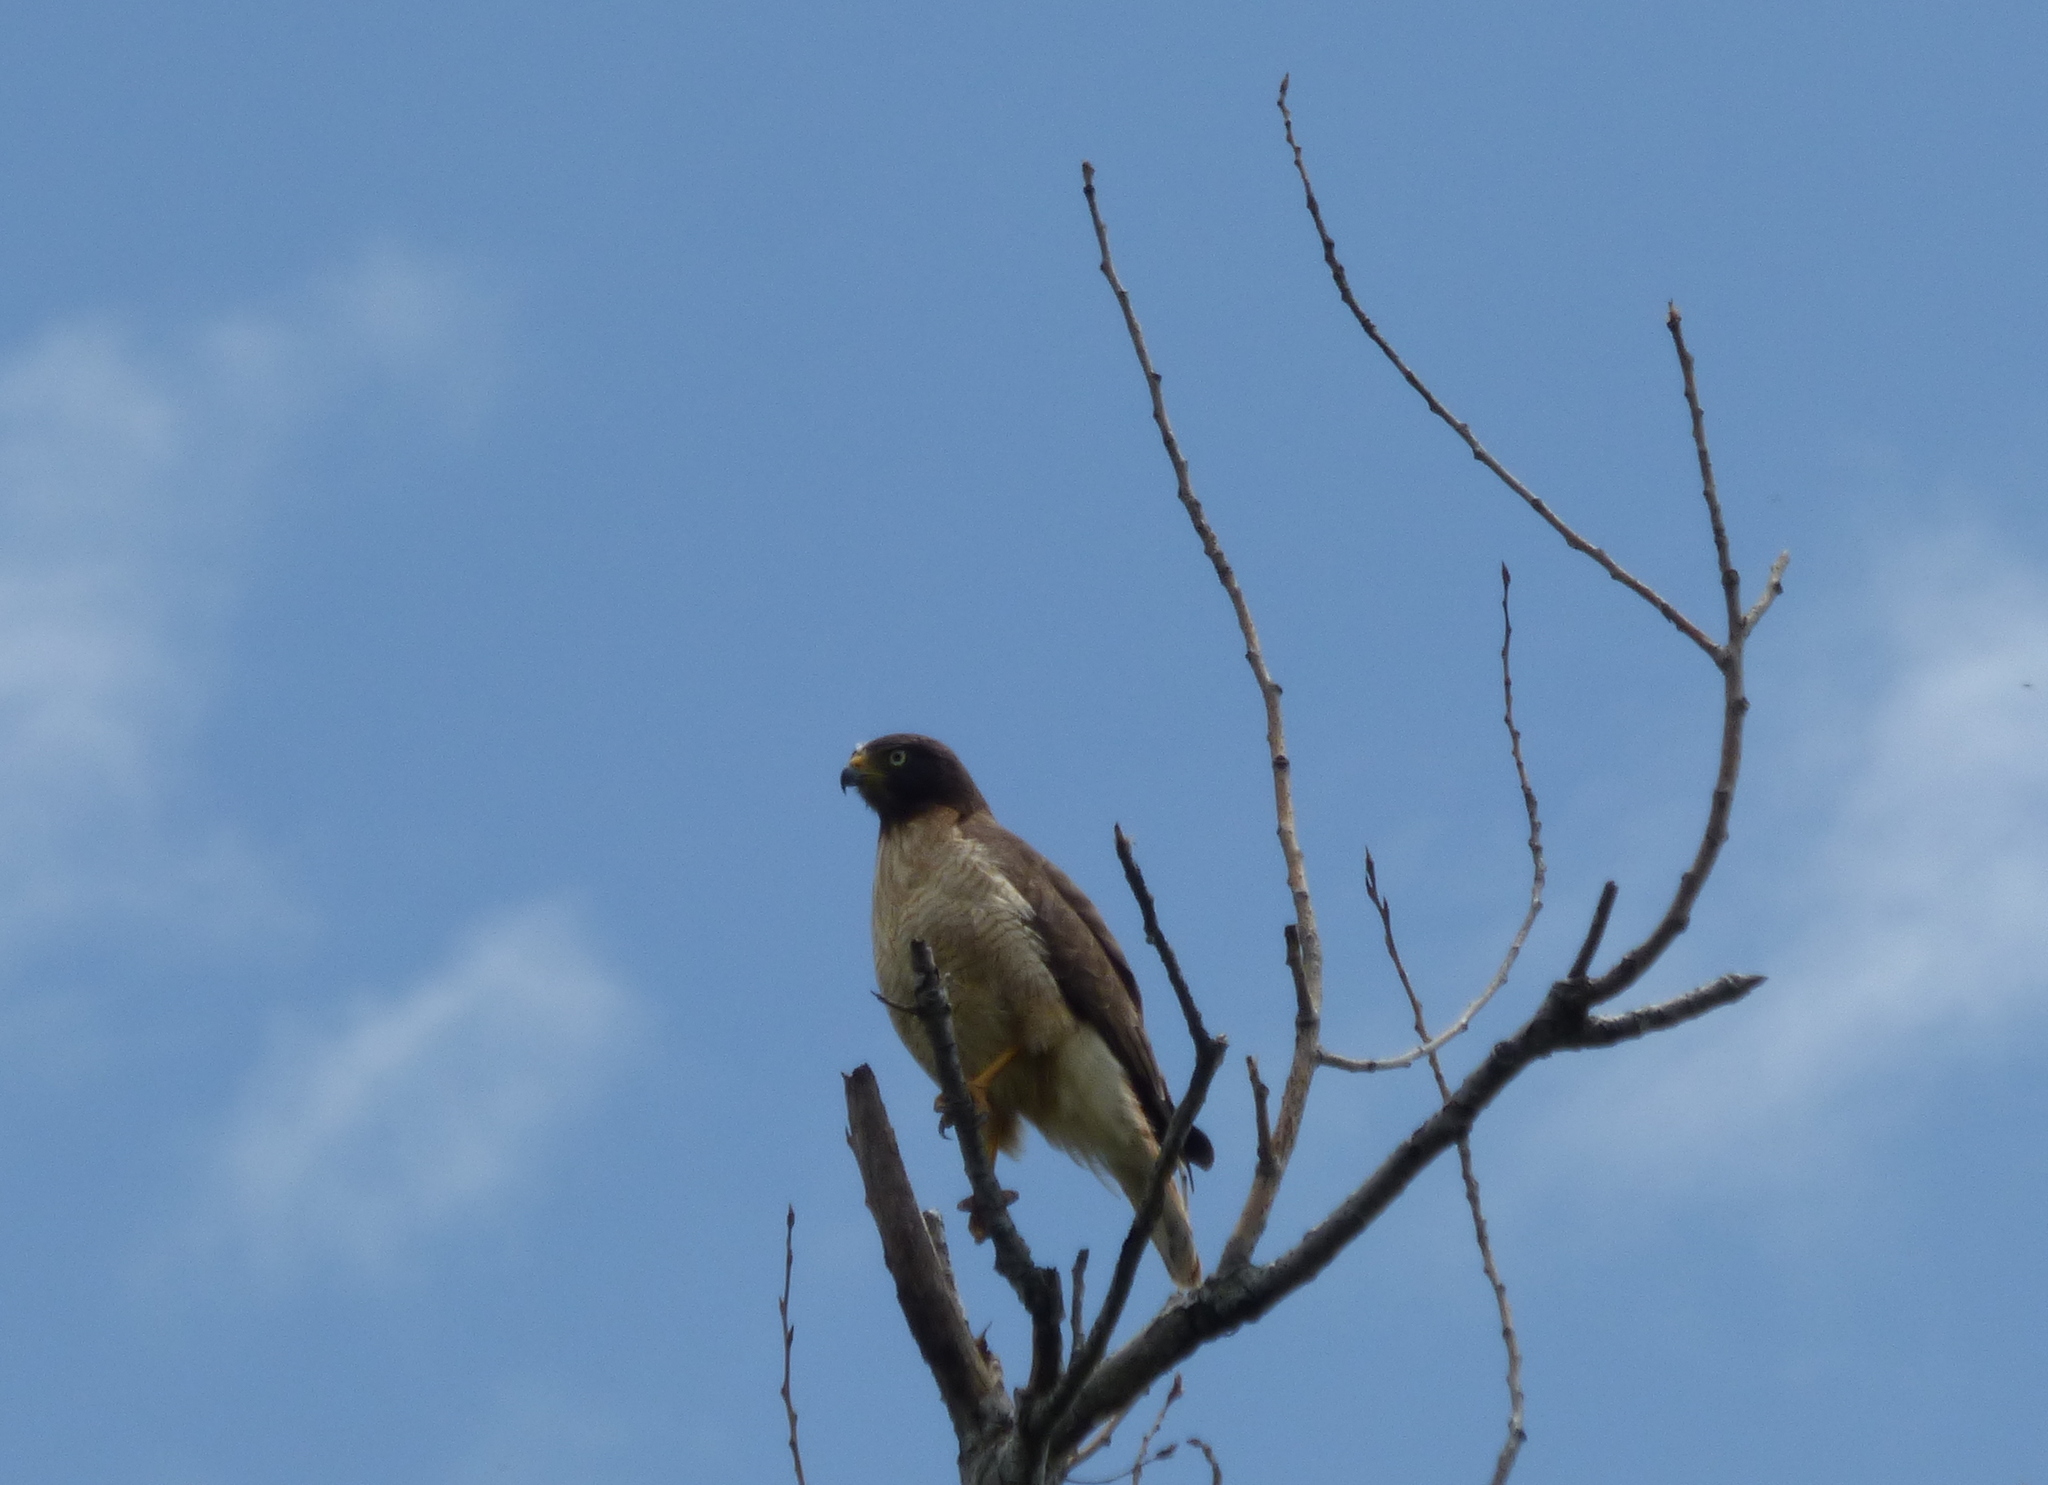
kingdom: Animalia
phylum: Chordata
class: Aves
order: Accipitriformes
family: Accipitridae
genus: Rupornis
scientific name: Rupornis magnirostris
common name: Roadside hawk
